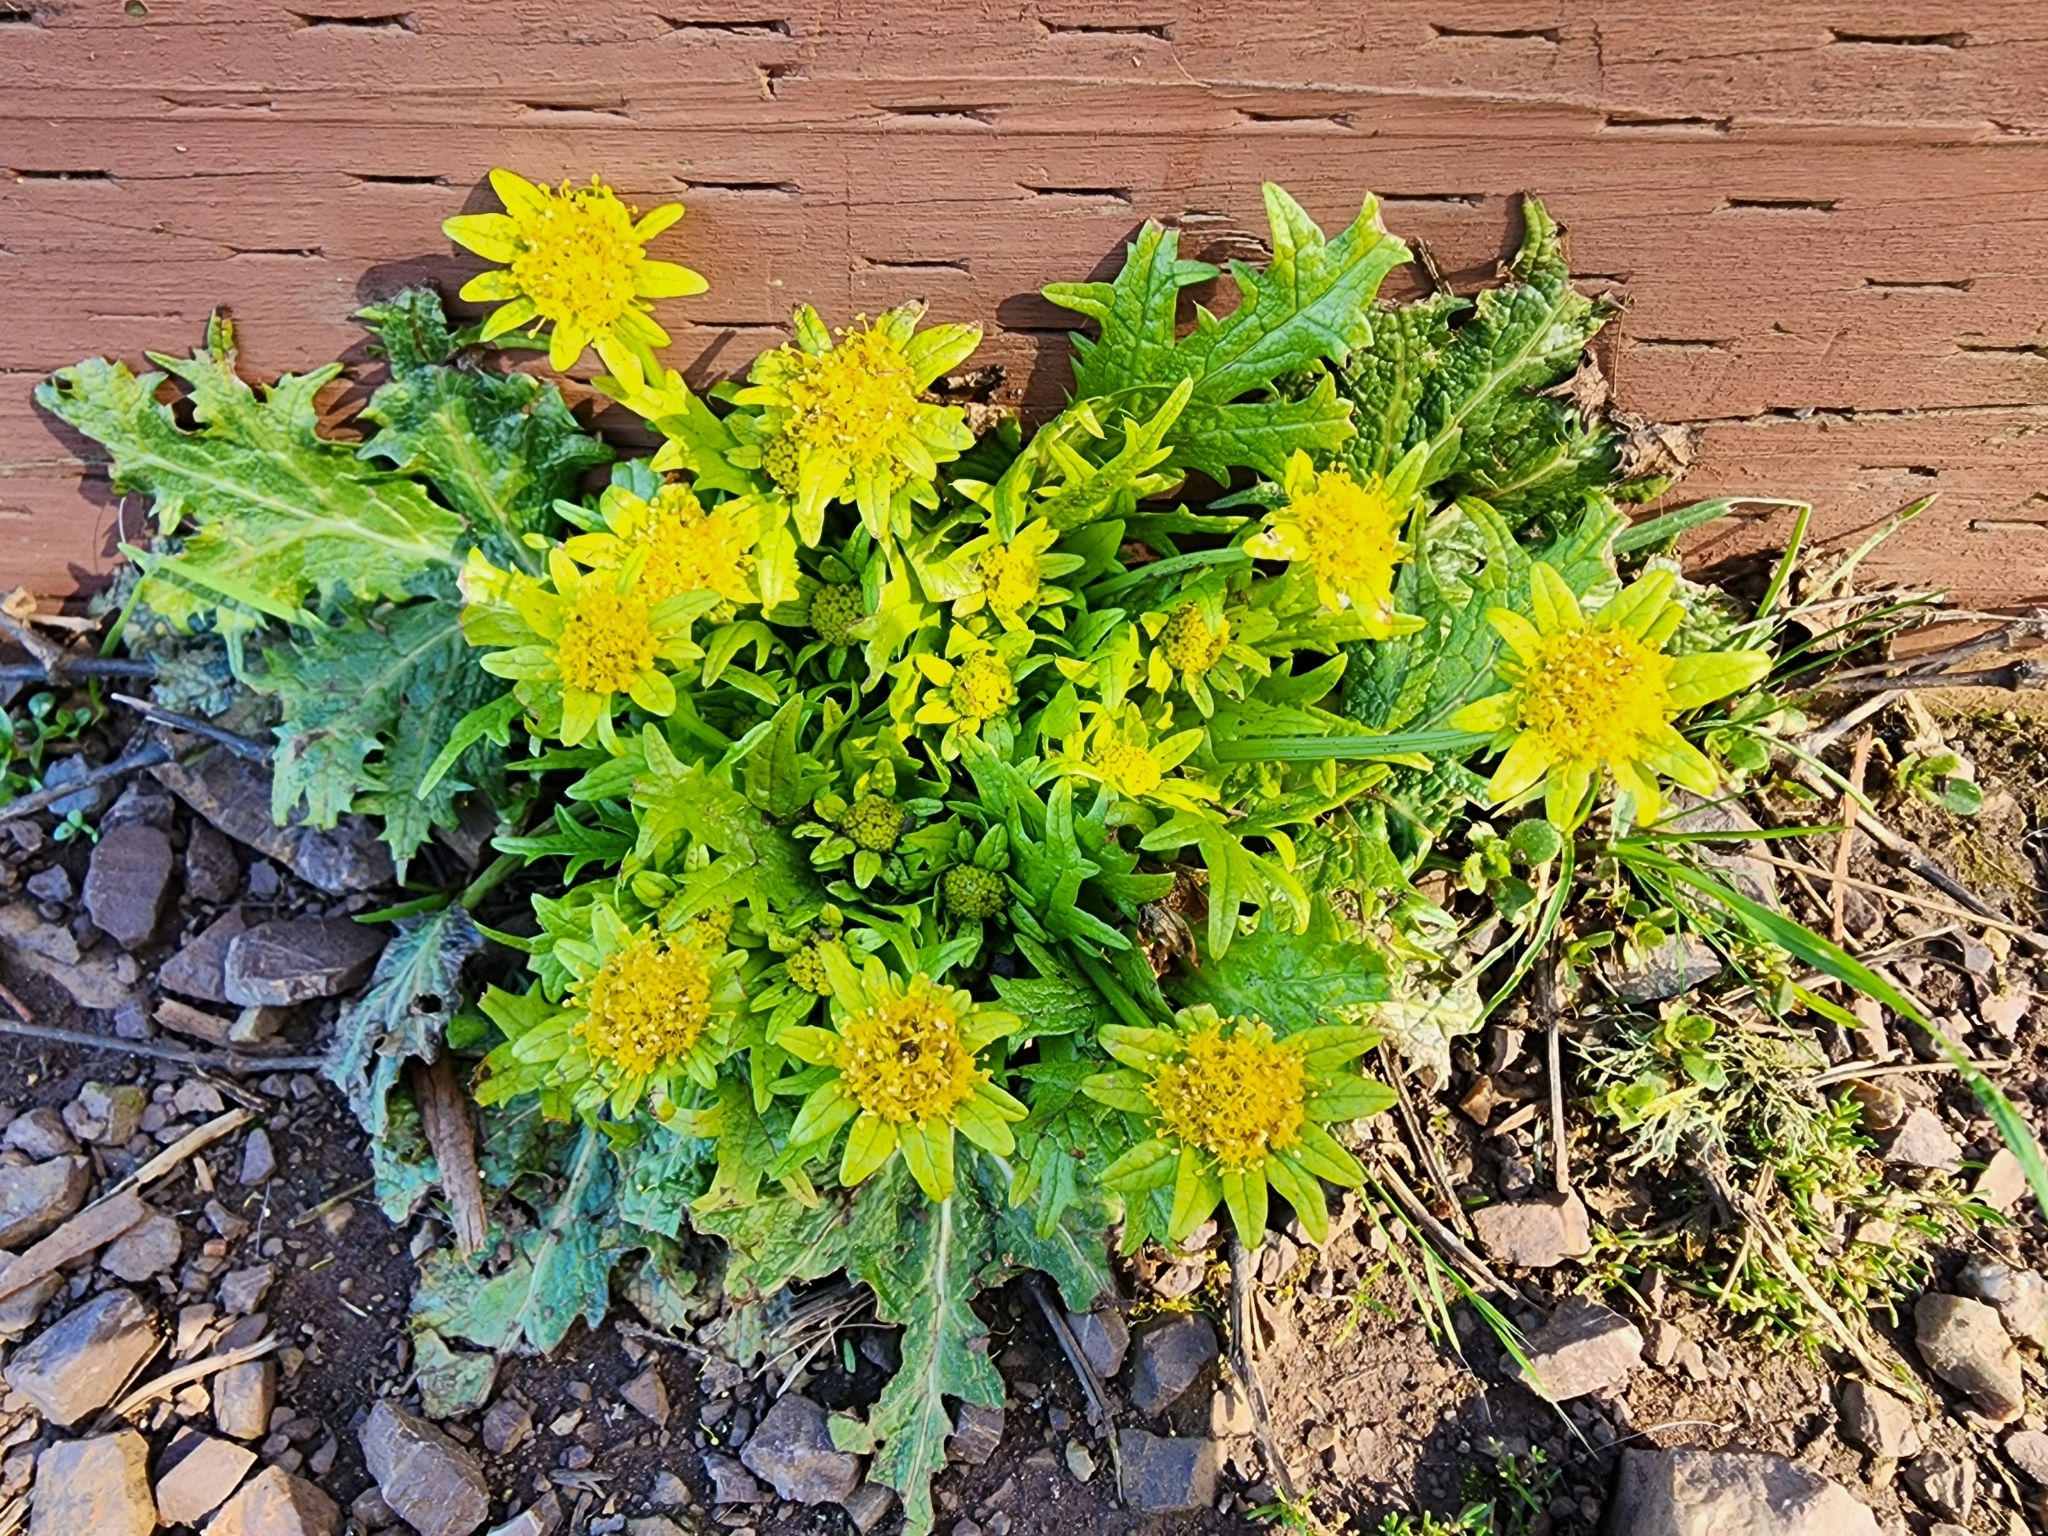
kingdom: Plantae
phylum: Tracheophyta
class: Magnoliopsida
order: Apiales
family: Apiaceae
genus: Sanicula
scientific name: Sanicula arctopoides
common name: Footsteps-of-spring
